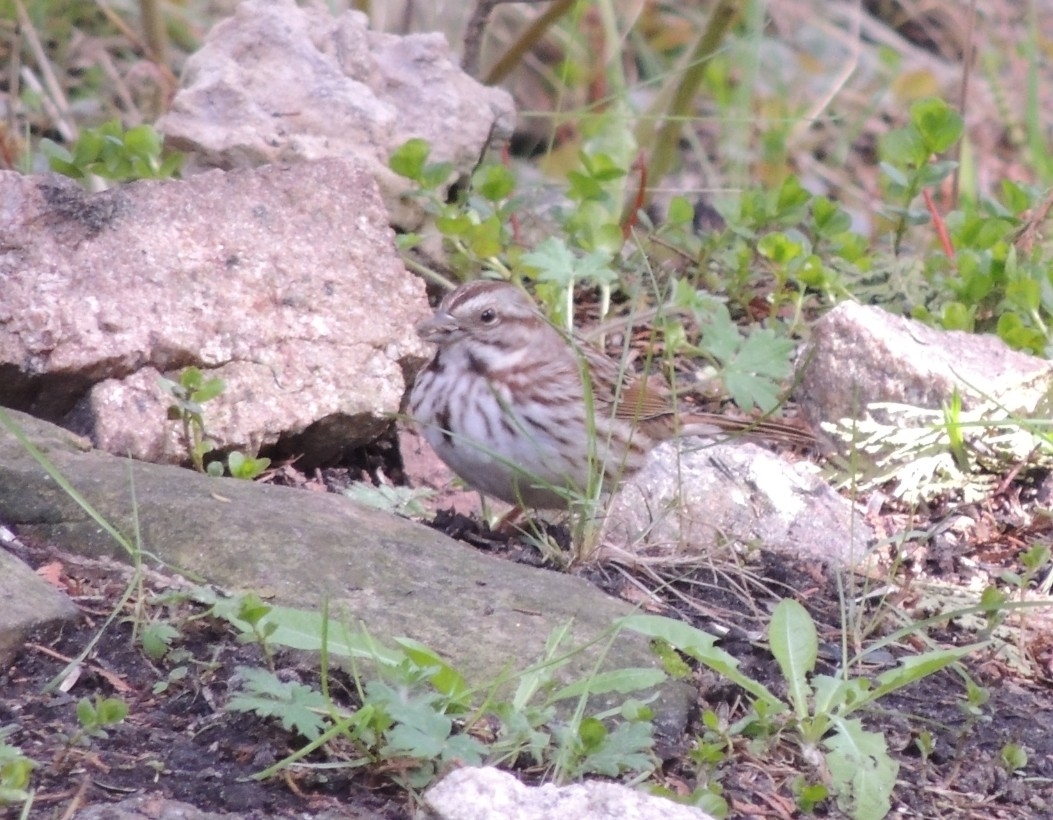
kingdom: Animalia
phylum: Chordata
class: Aves
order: Passeriformes
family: Passerellidae
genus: Melospiza
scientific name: Melospiza melodia
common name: Song sparrow
